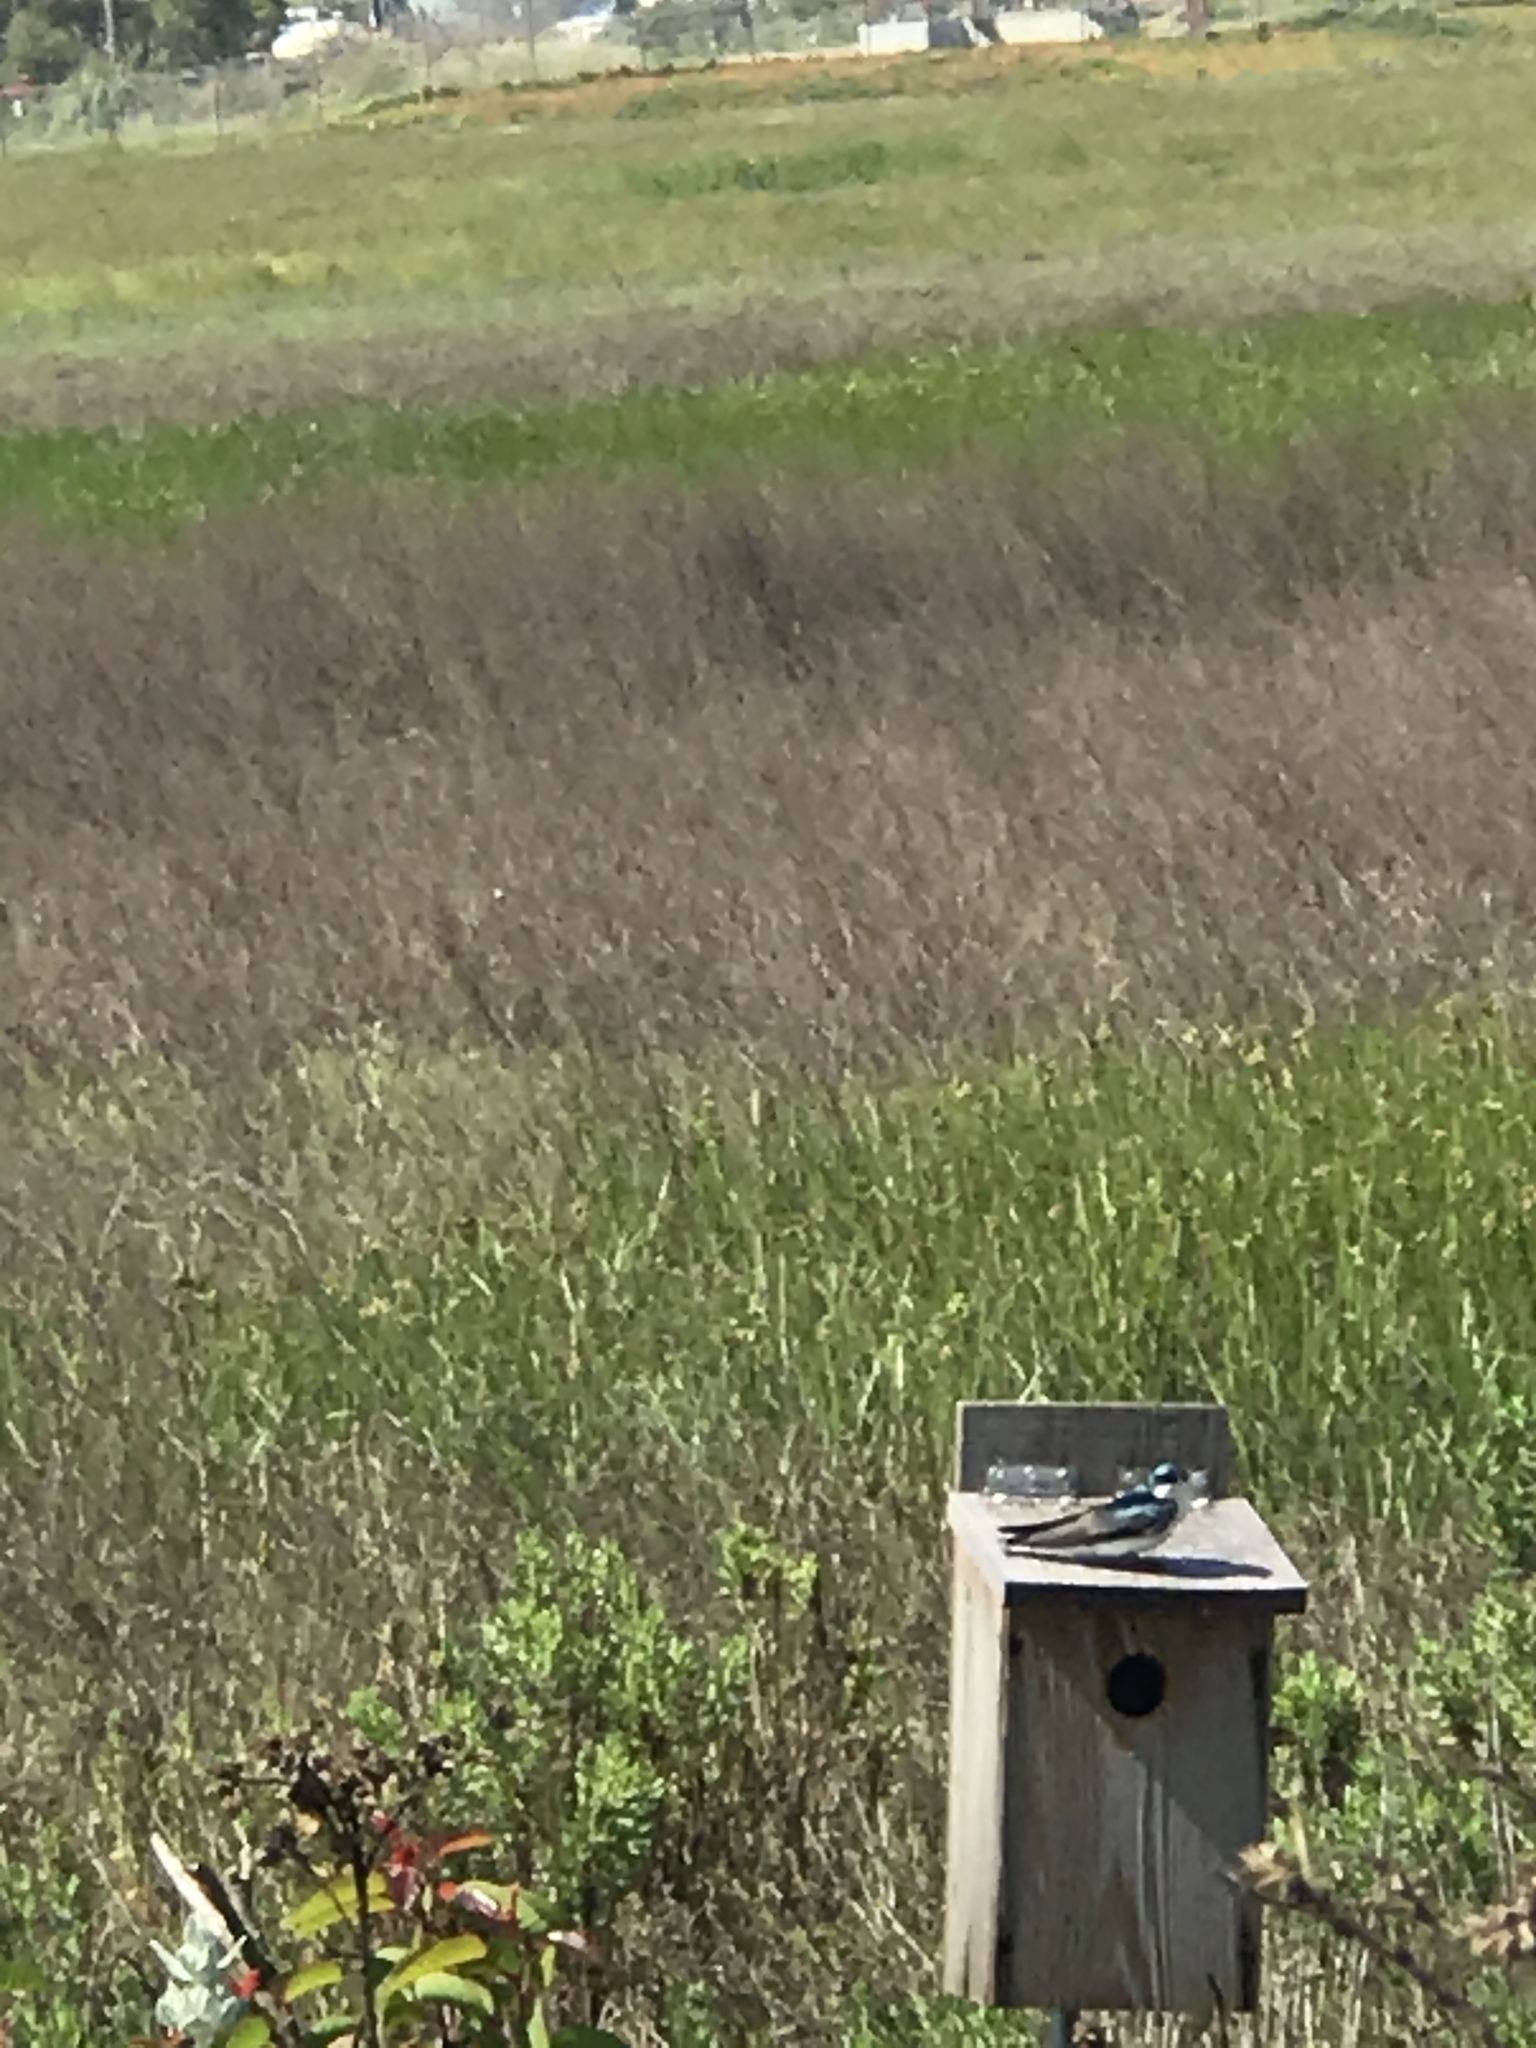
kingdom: Animalia
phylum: Chordata
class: Aves
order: Passeriformes
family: Hirundinidae
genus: Tachycineta
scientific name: Tachycineta bicolor
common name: Tree swallow
